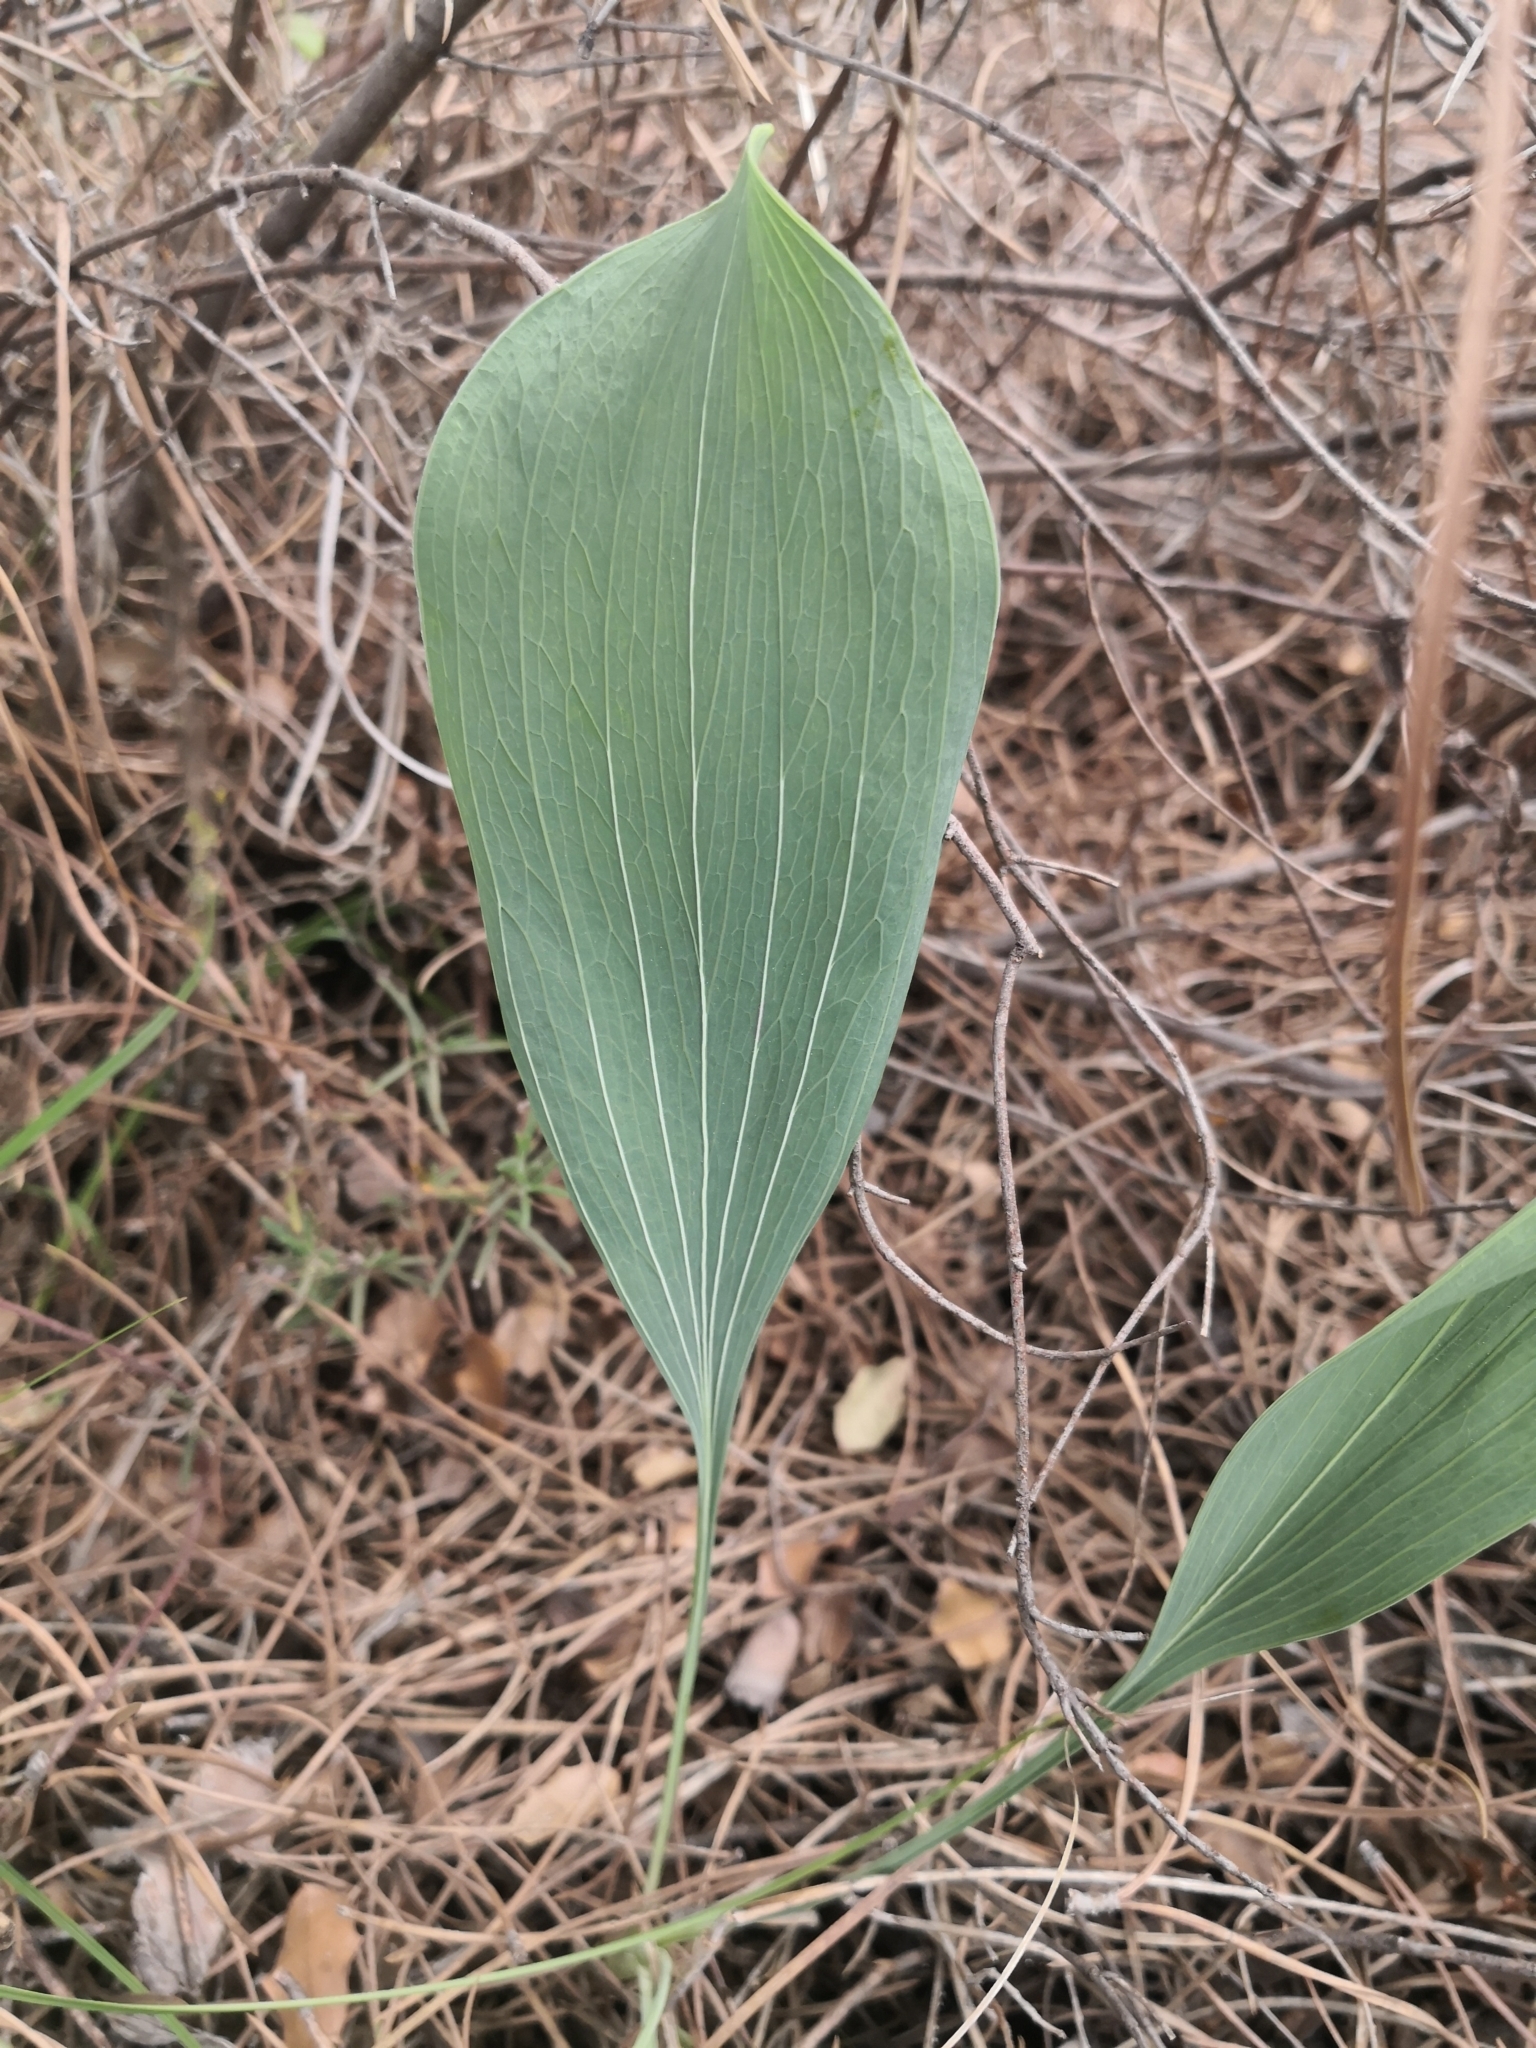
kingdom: Plantae
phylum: Tracheophyta
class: Magnoliopsida
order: Apiales
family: Apiaceae
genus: Bupleurum
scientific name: Bupleurum rigidum
